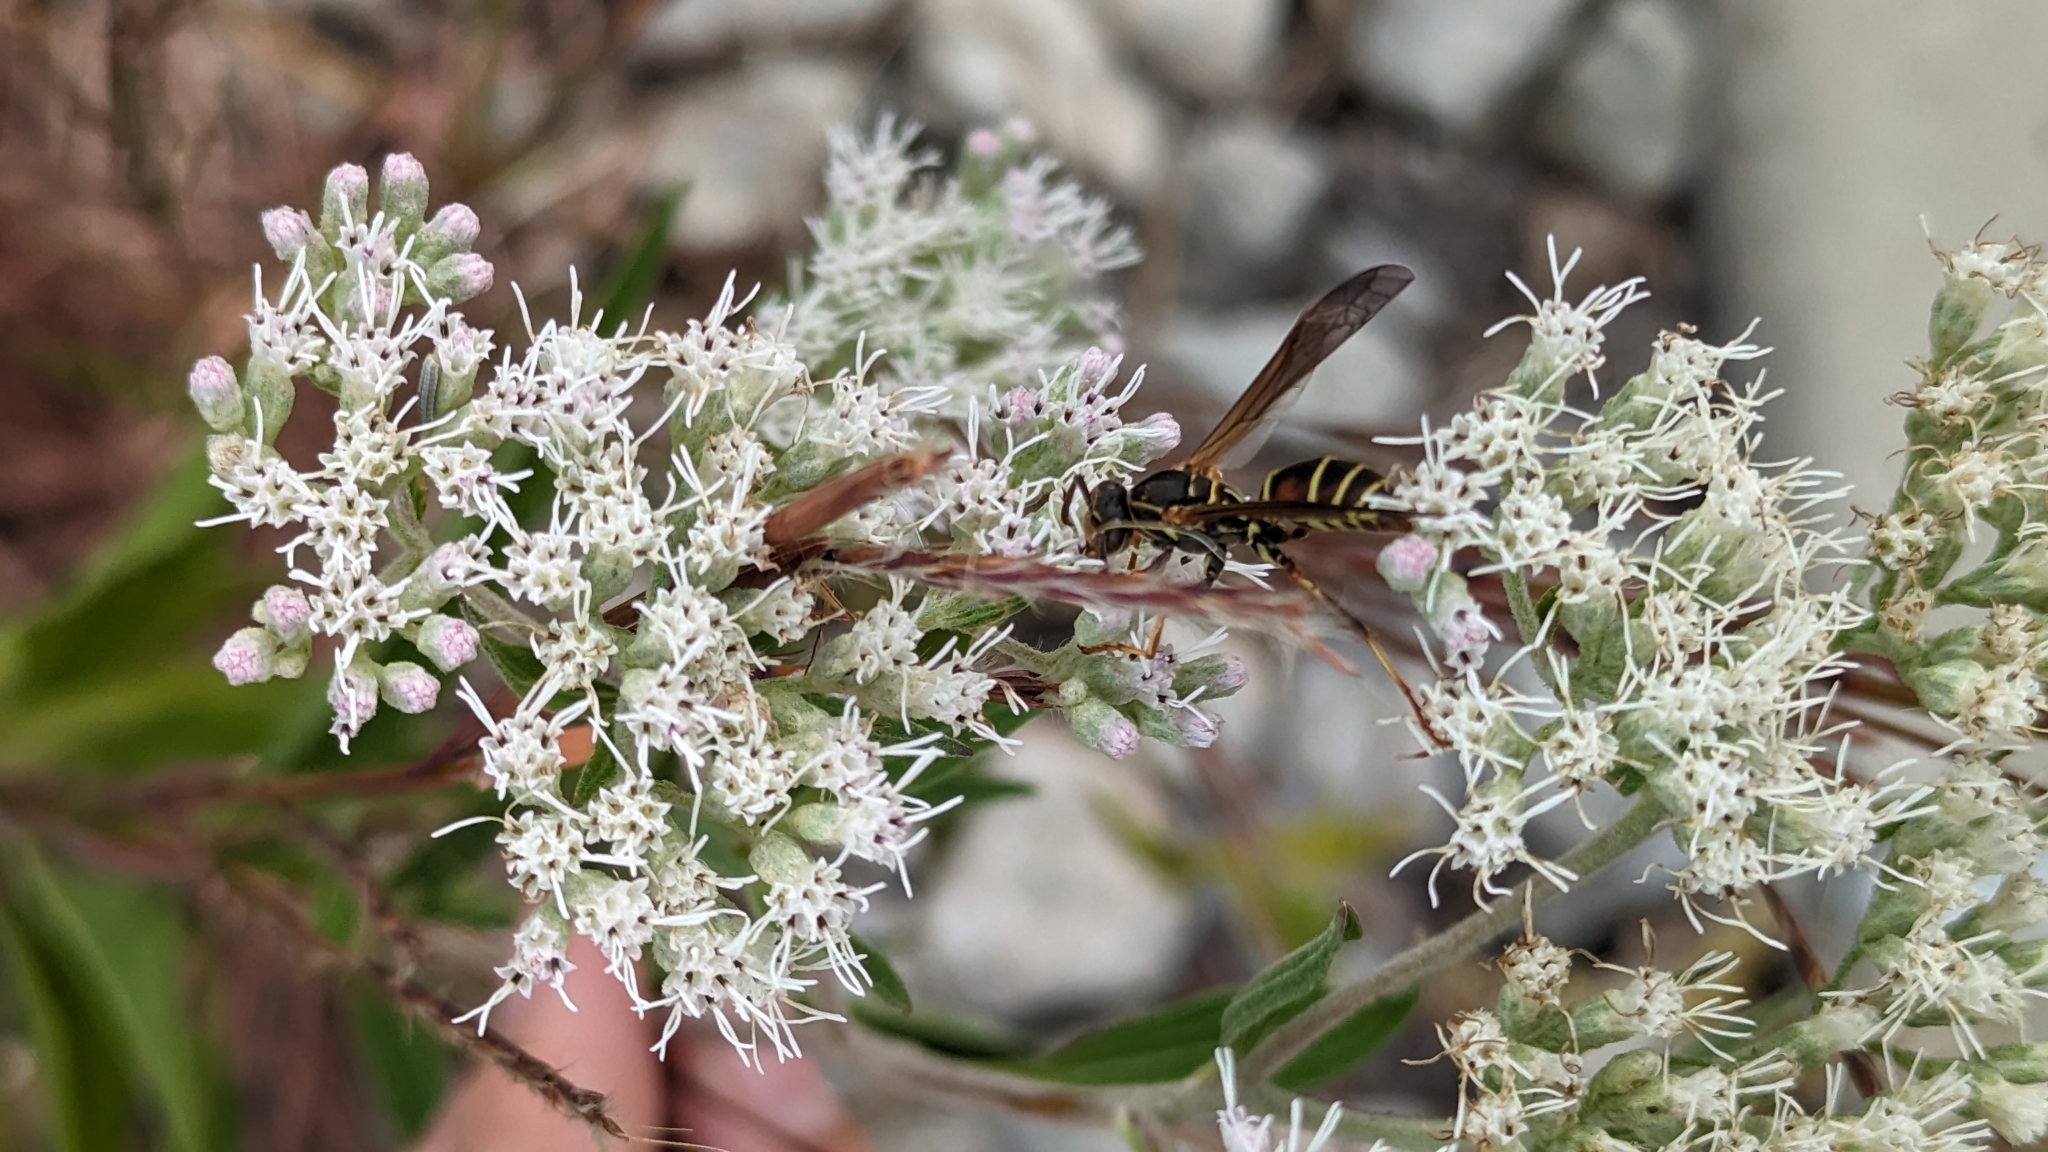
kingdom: Animalia
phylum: Arthropoda
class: Insecta
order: Hymenoptera
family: Eumenidae
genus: Polistes
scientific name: Polistes fuscatus
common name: Dark paper wasp
